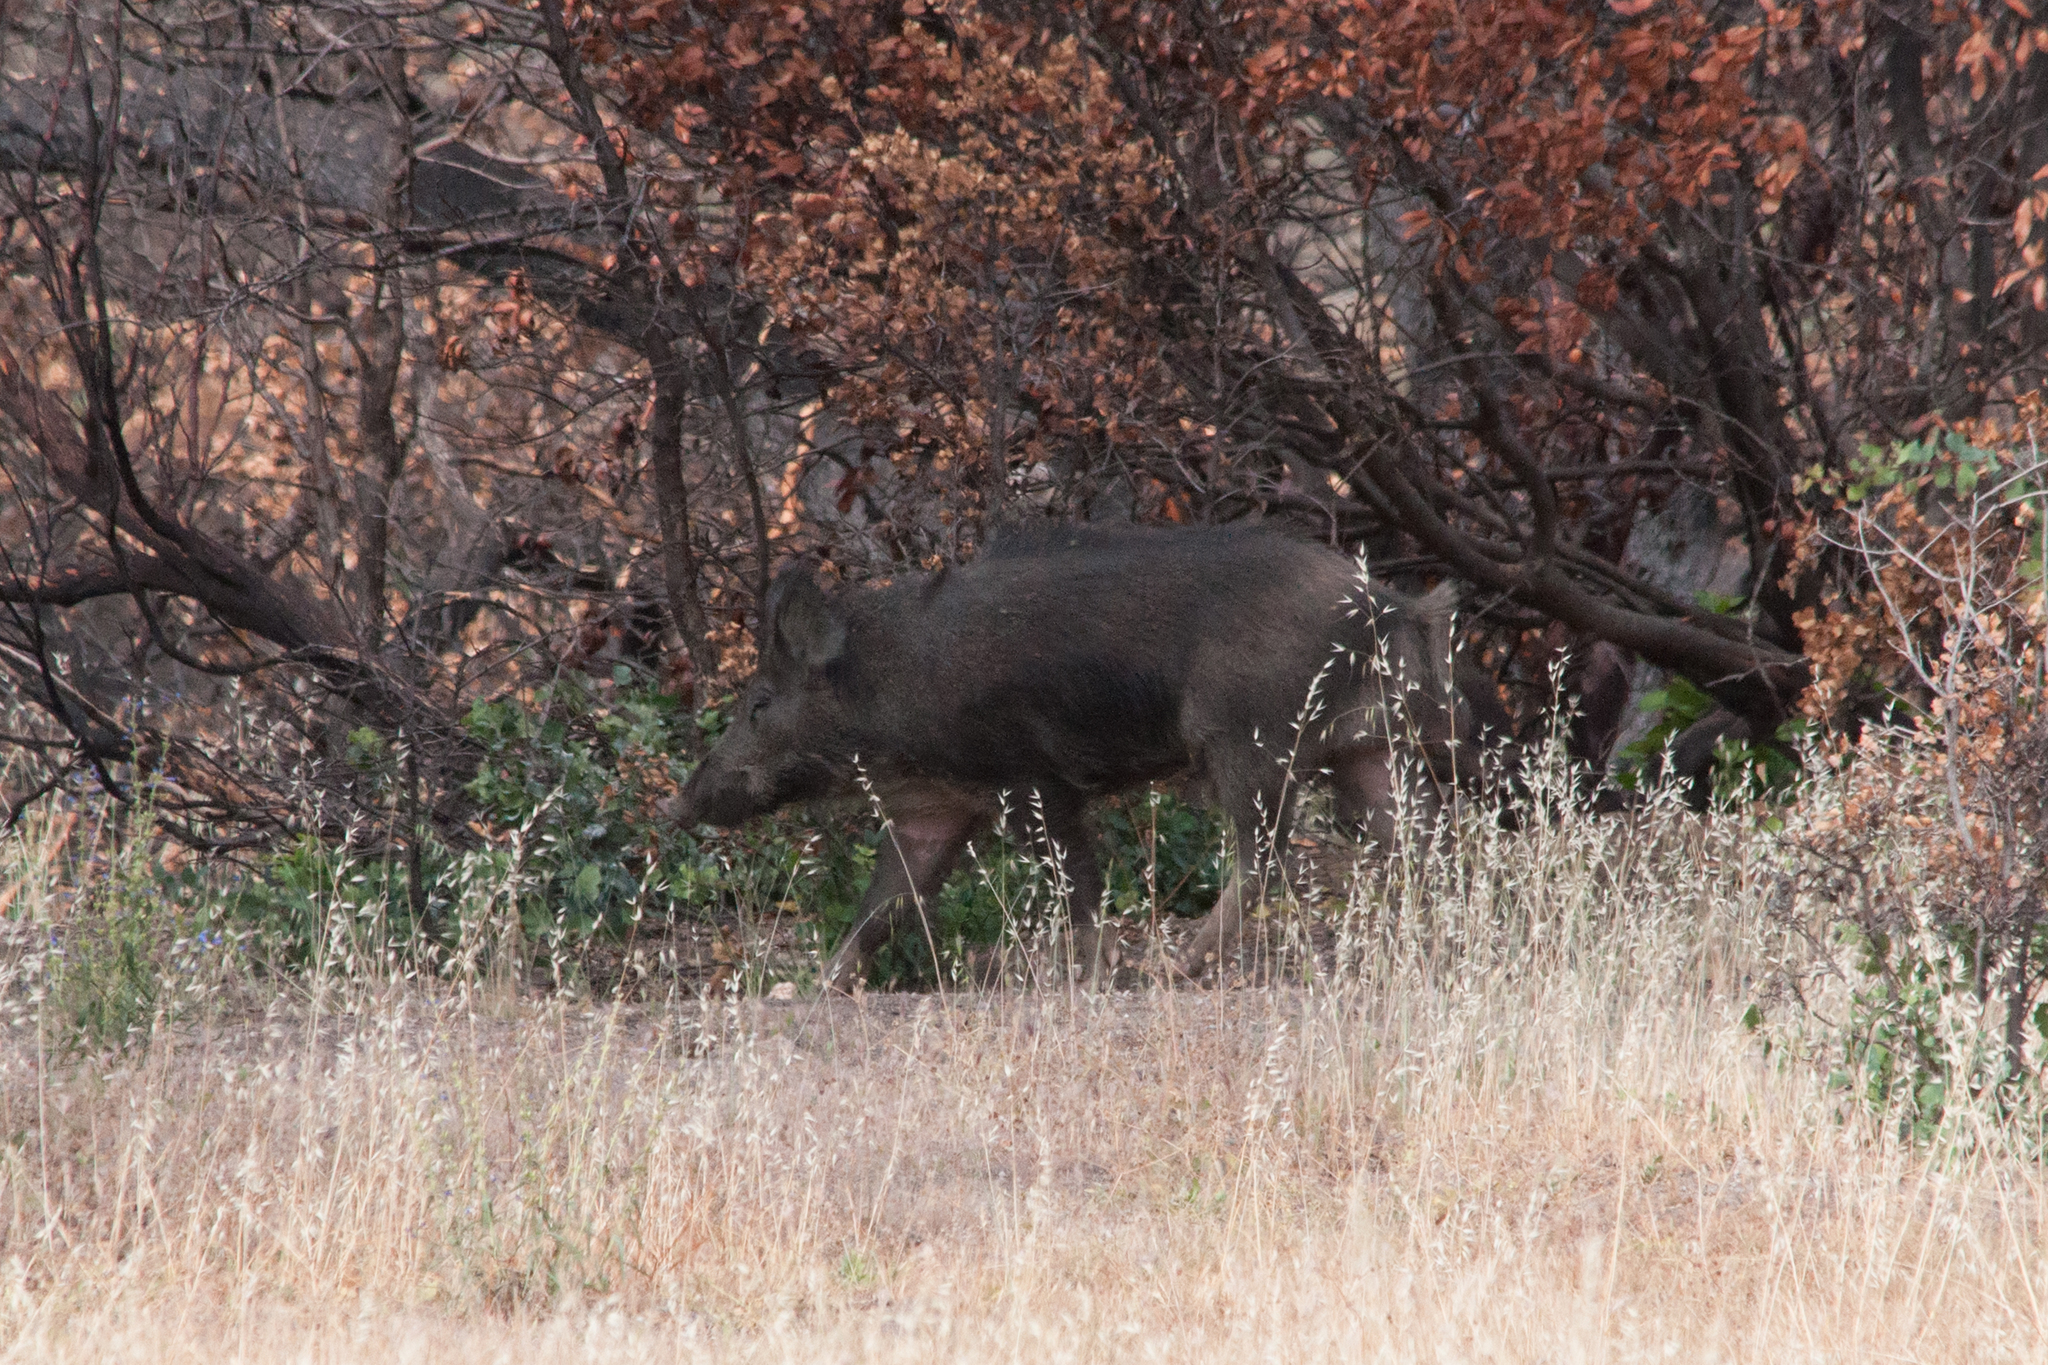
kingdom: Animalia
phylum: Chordata
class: Mammalia
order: Artiodactyla
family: Suidae
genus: Sus
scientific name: Sus scrofa
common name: Wild boar
